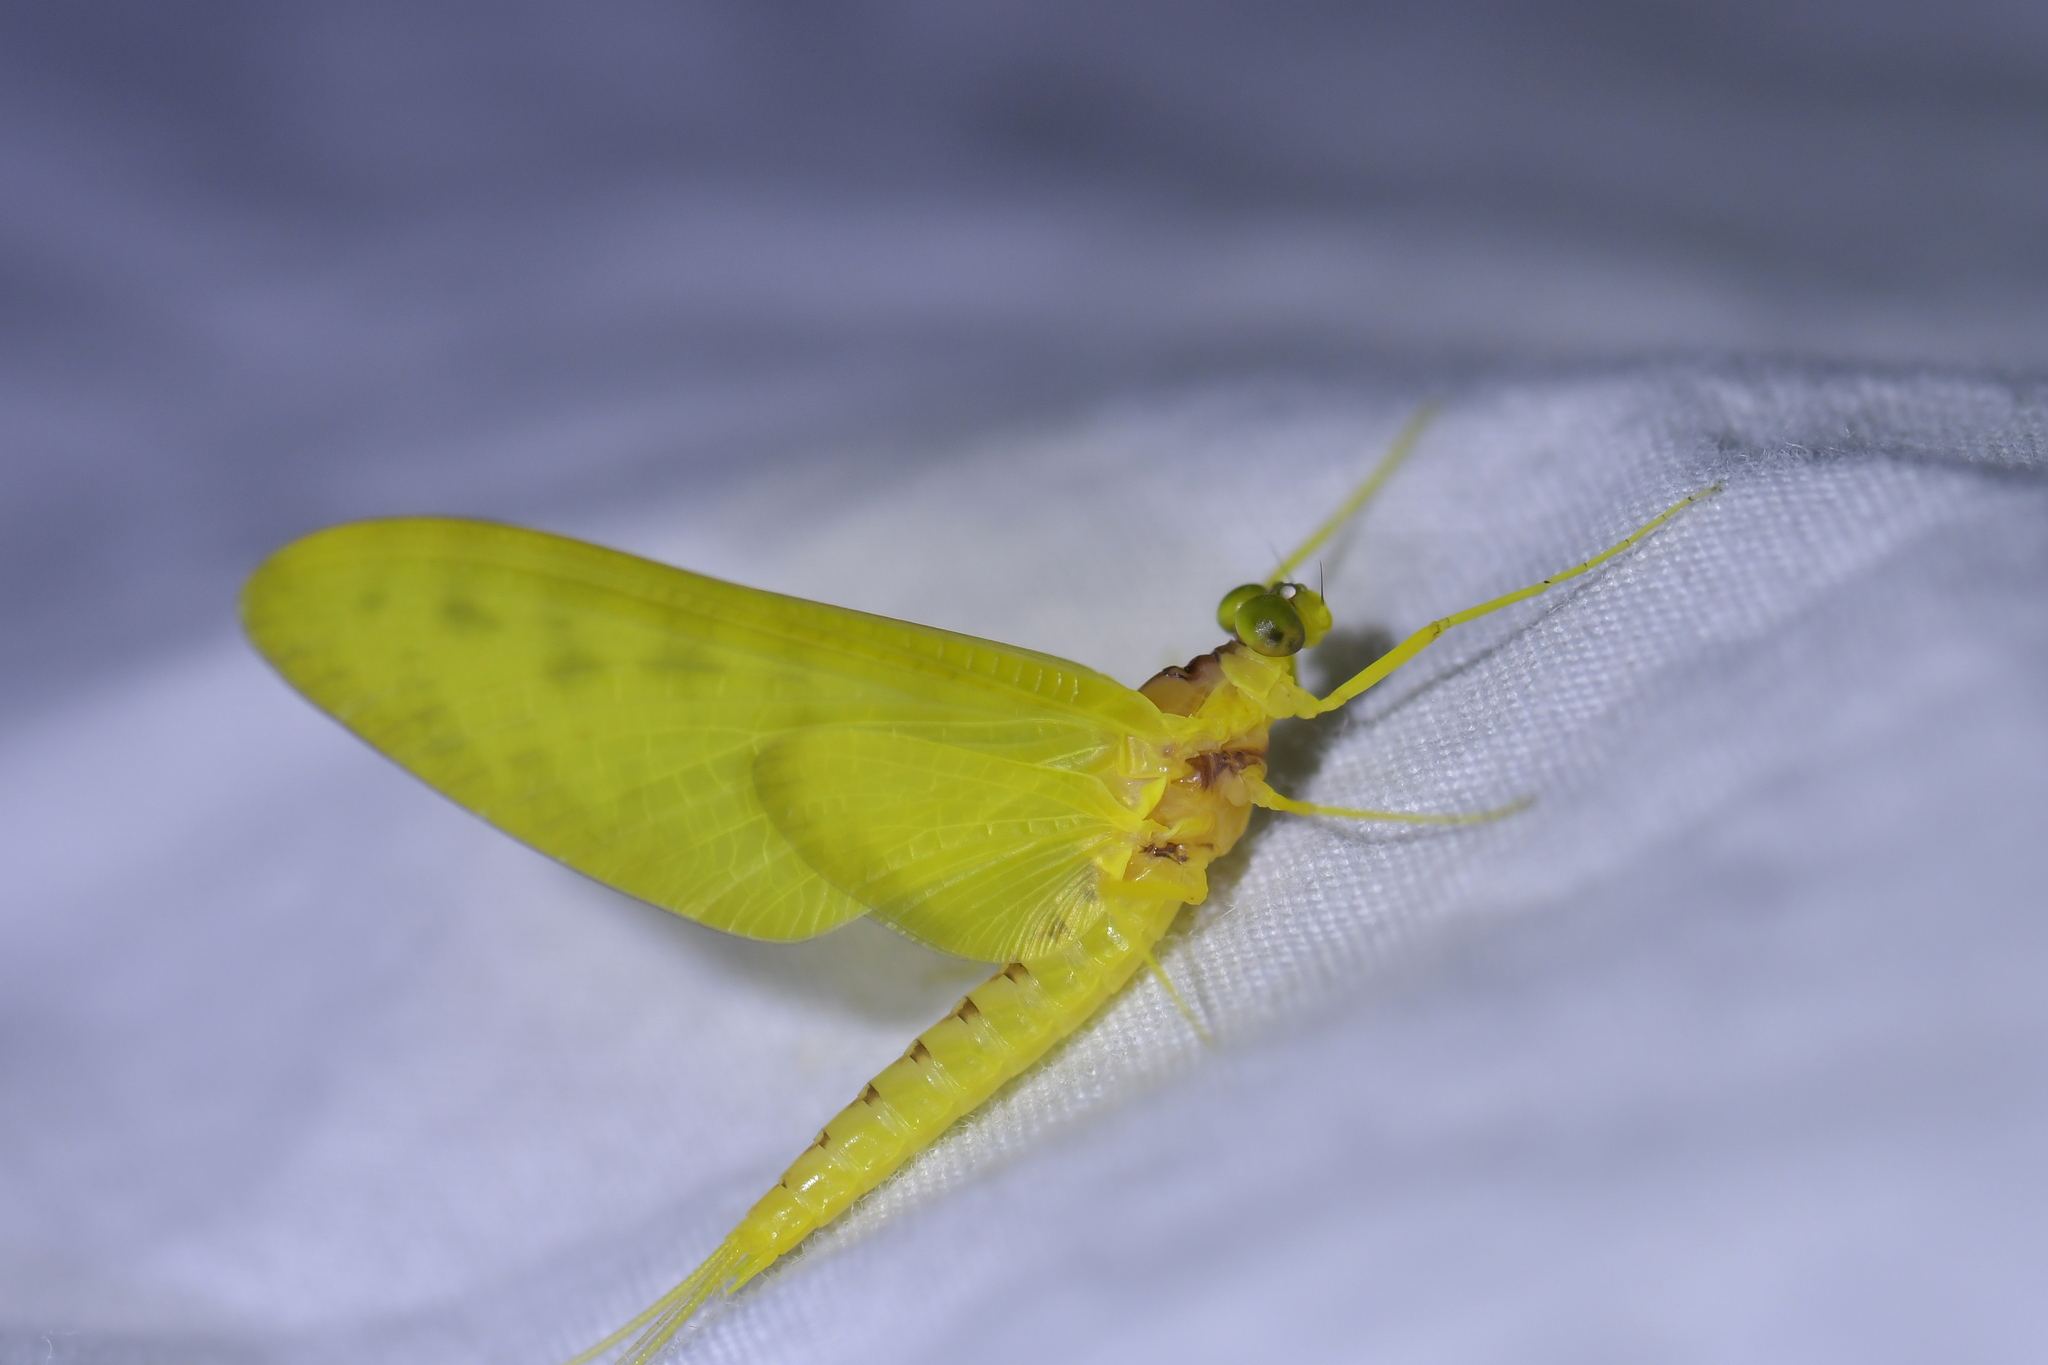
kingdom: Animalia
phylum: Arthropoda
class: Insecta
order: Ephemeroptera
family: Ameletopsidae
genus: Ameletopsis
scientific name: Ameletopsis perscitus
